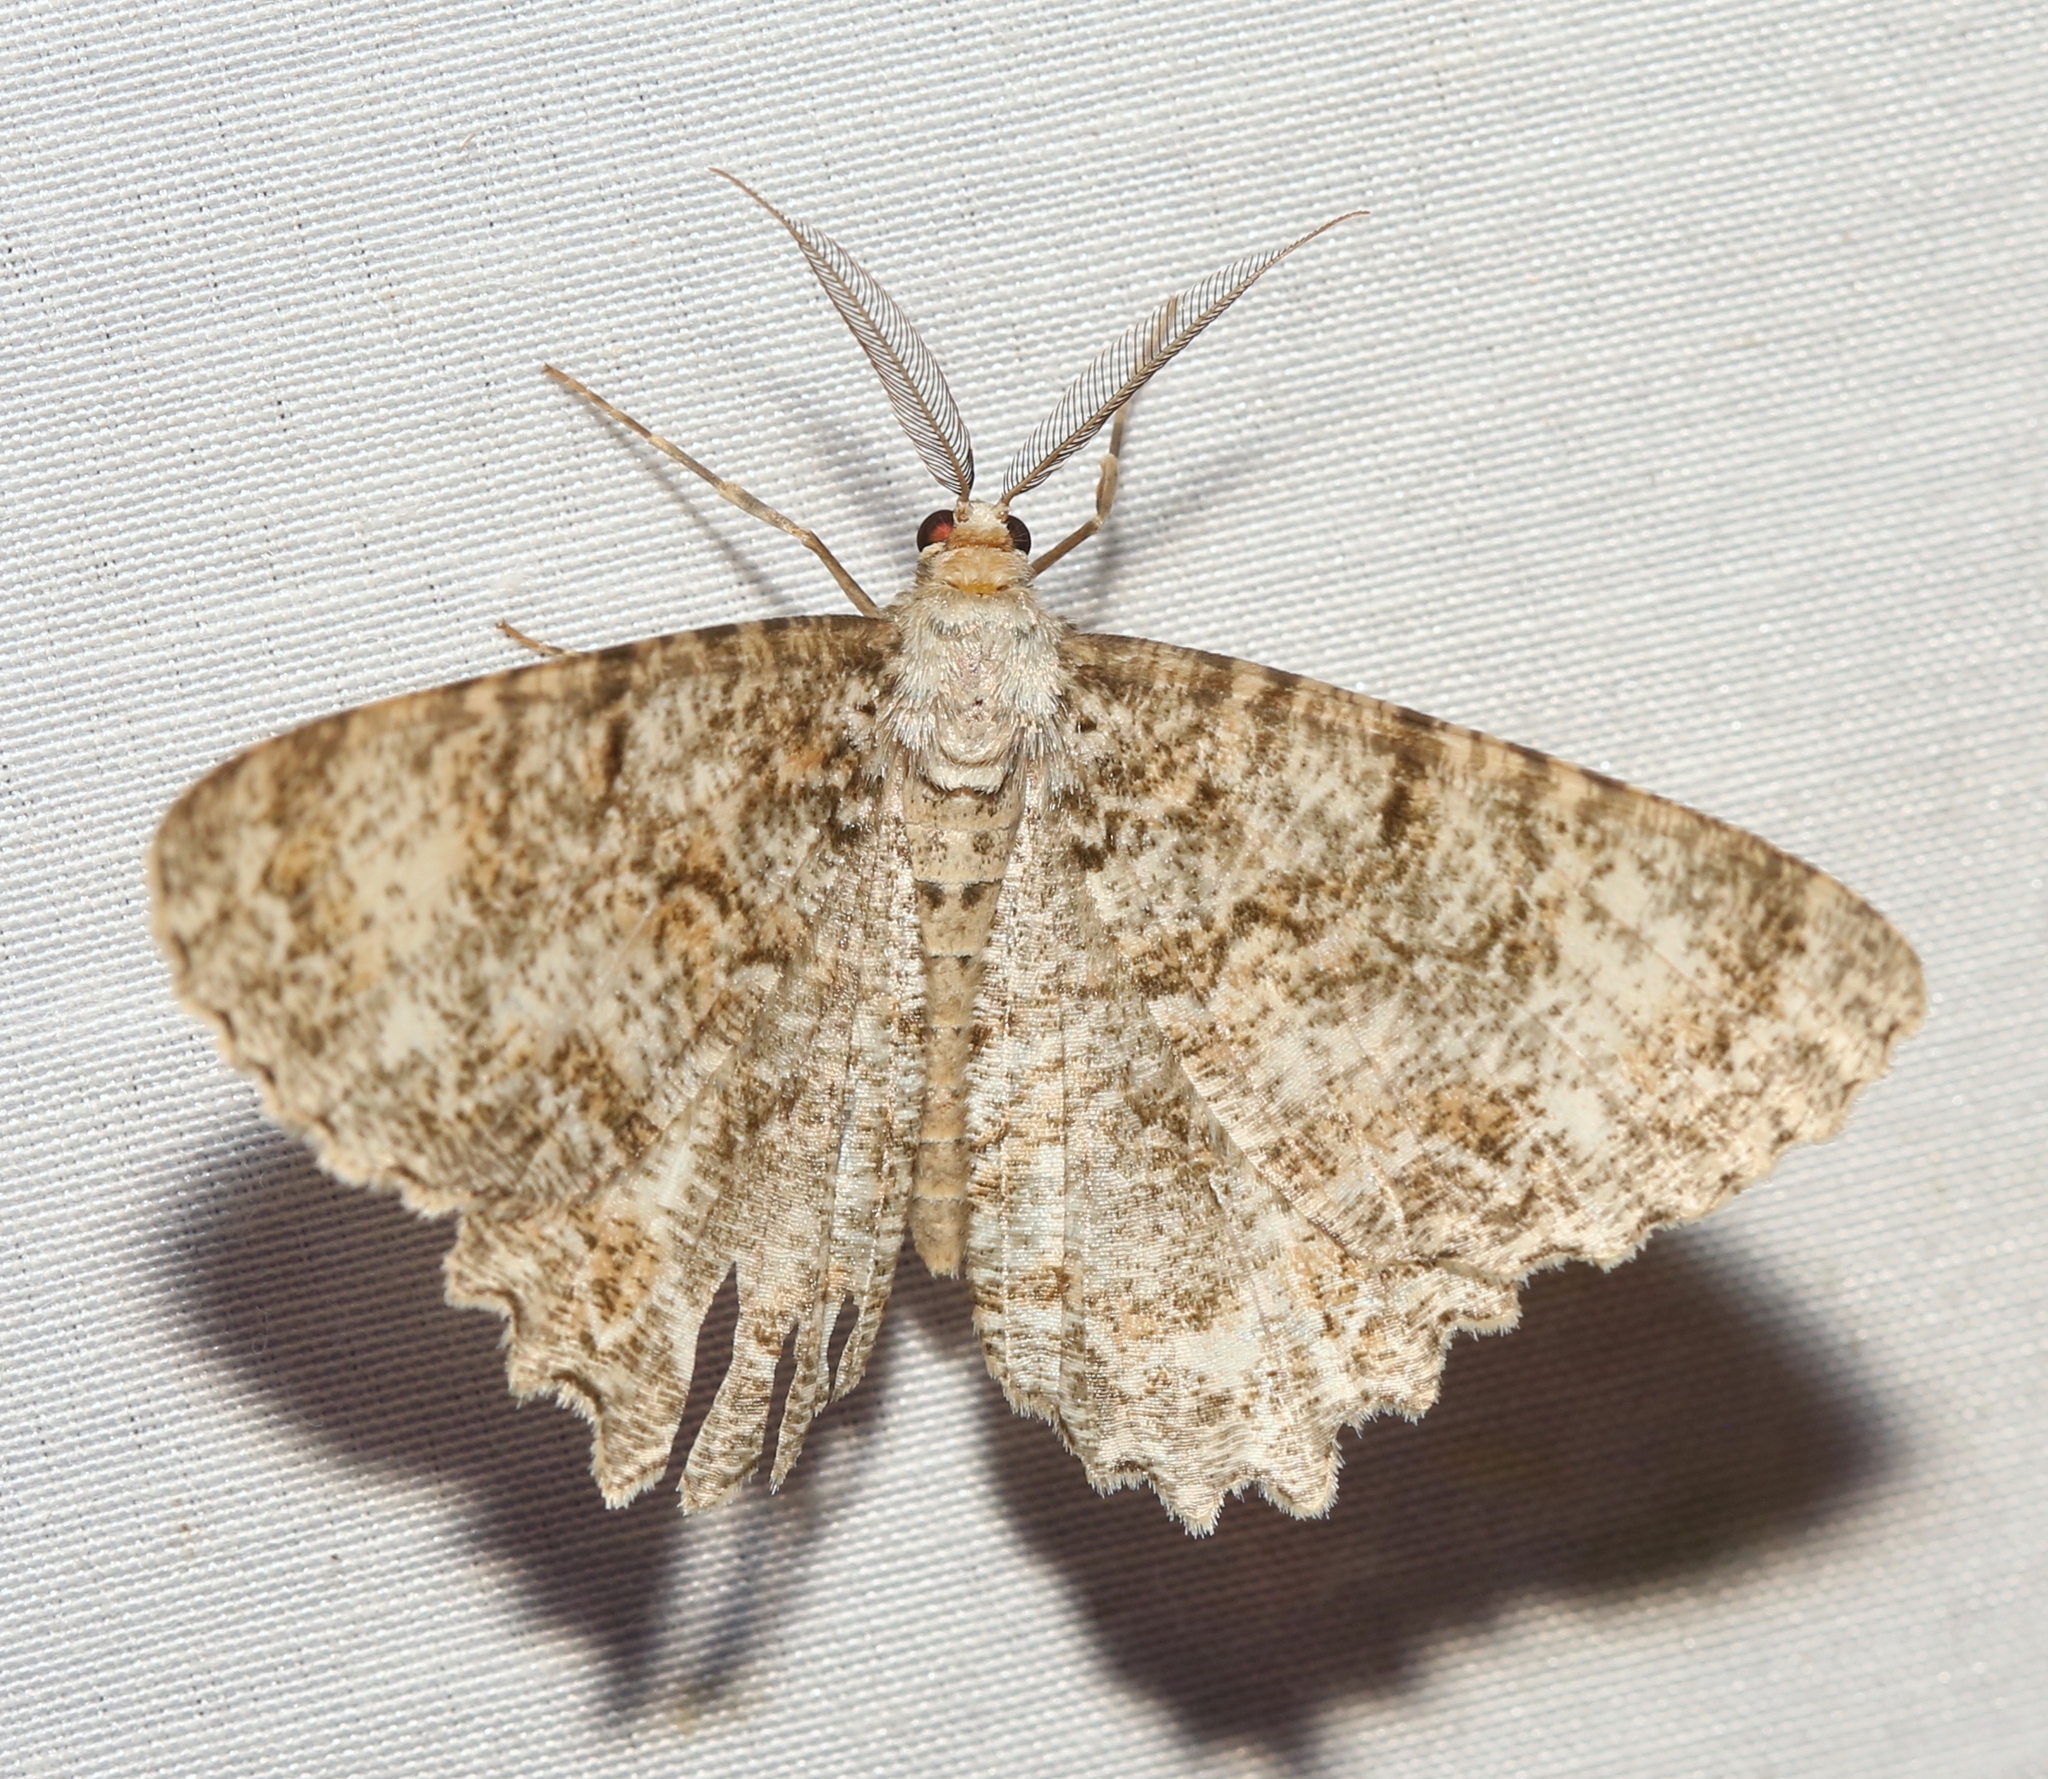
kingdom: Animalia
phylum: Arthropoda
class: Insecta
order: Lepidoptera
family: Geometridae
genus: Epimecis
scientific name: Epimecis hortaria
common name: Tulip-tree beauty
